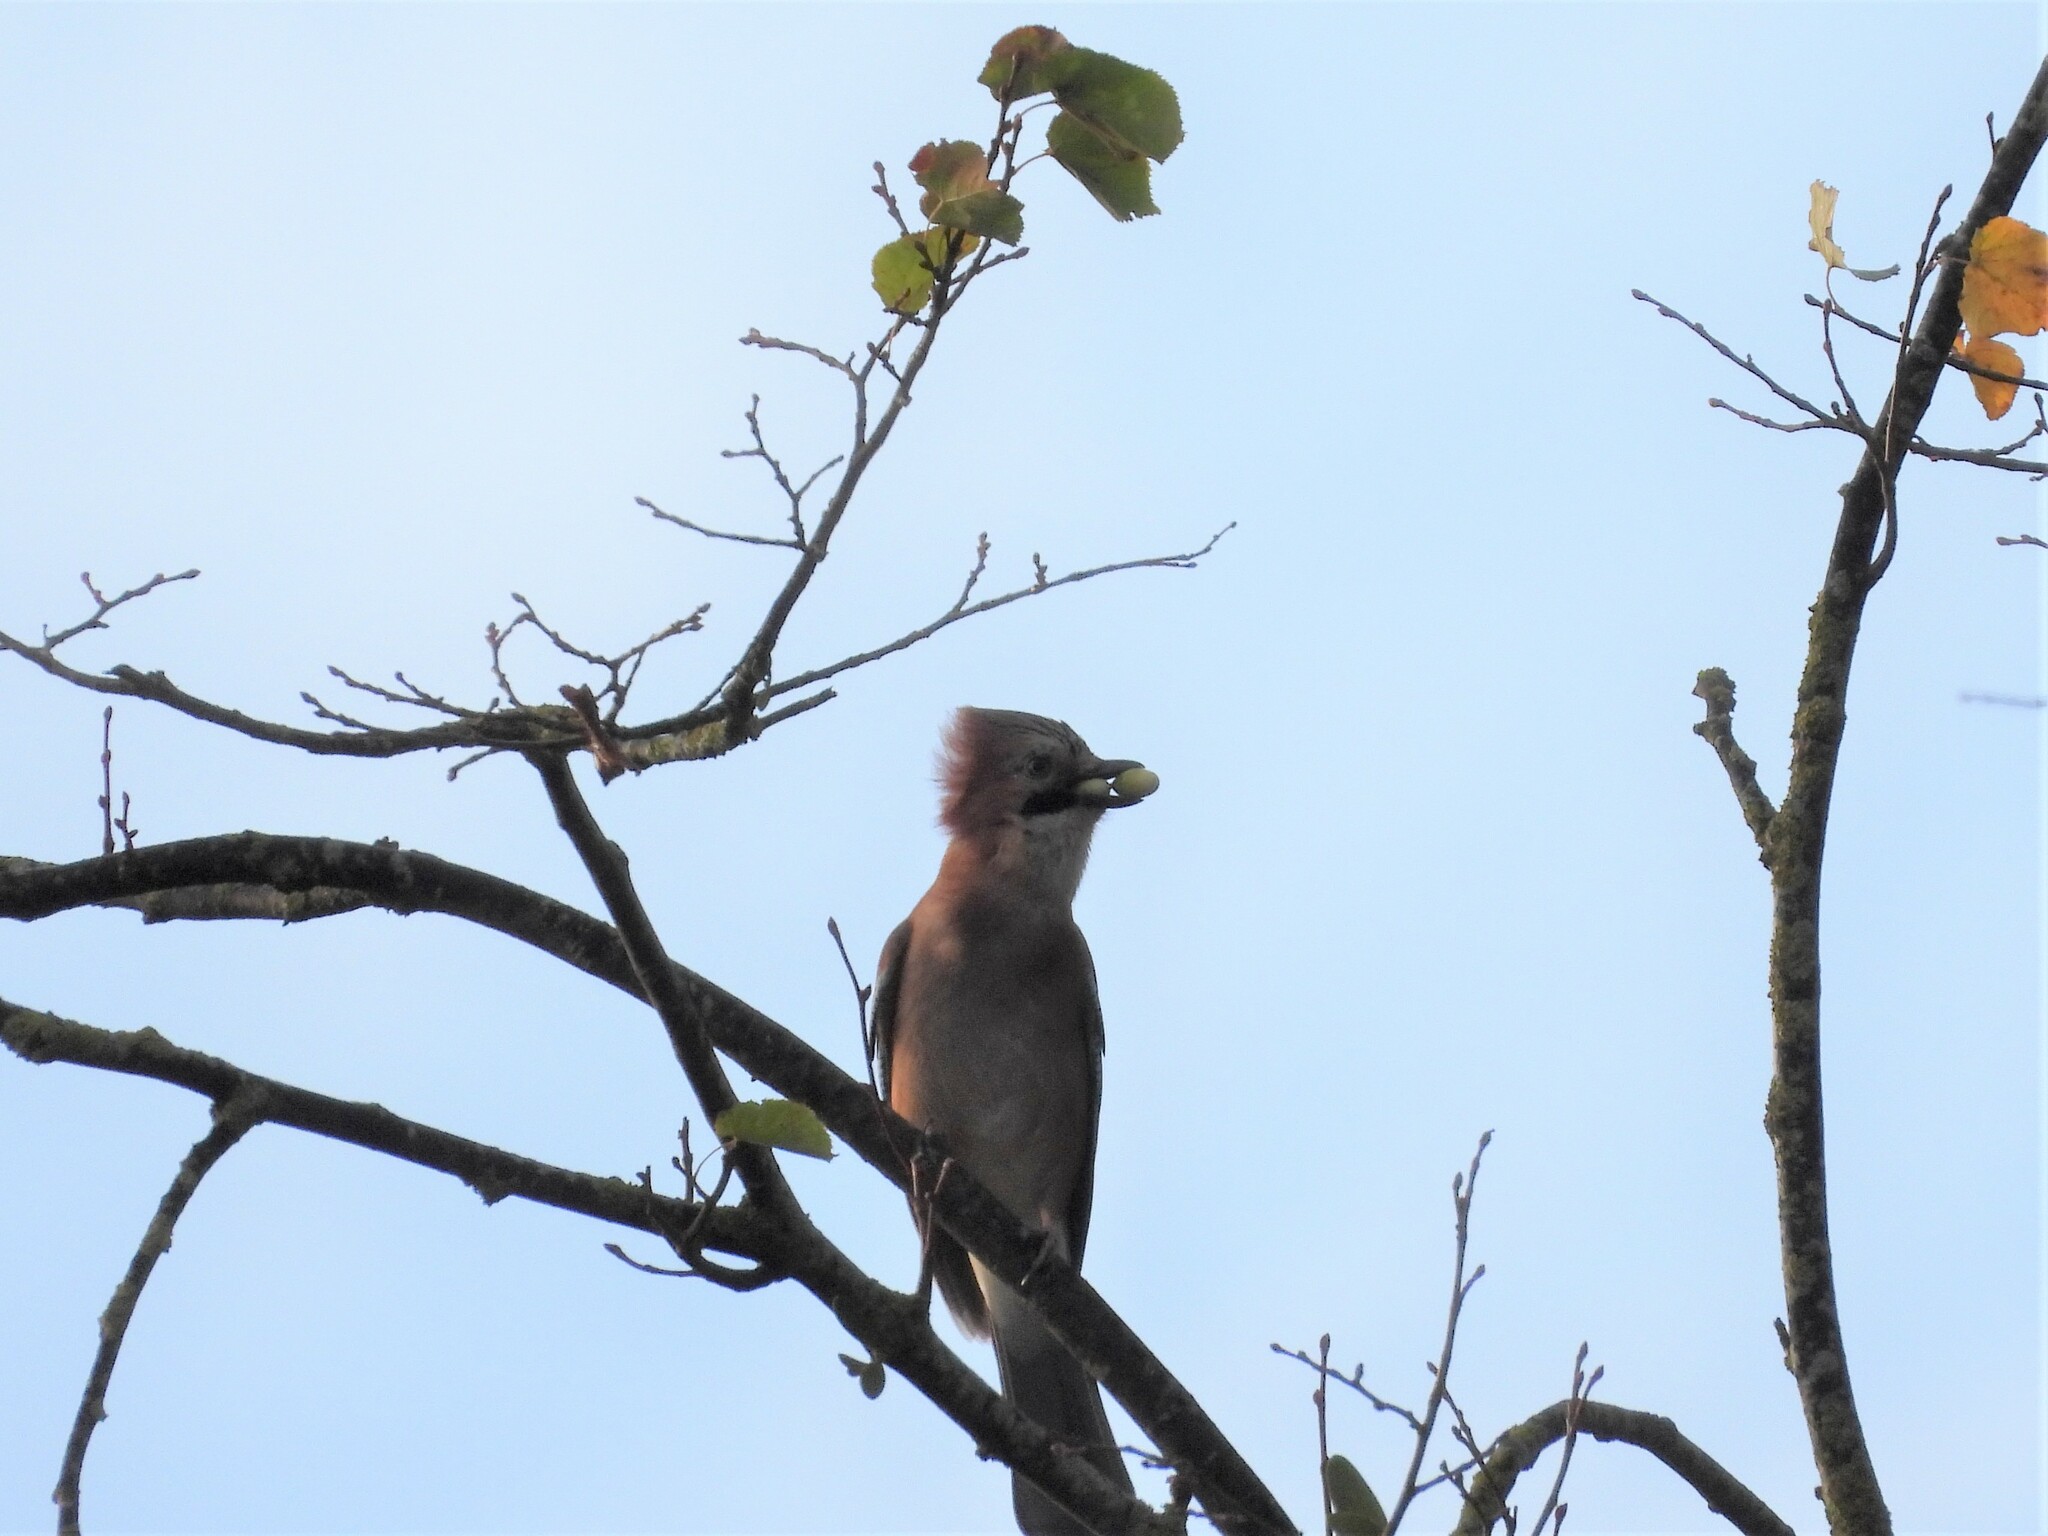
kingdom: Animalia
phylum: Chordata
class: Aves
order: Passeriformes
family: Corvidae
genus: Garrulus
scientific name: Garrulus glandarius
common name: Eurasian jay
